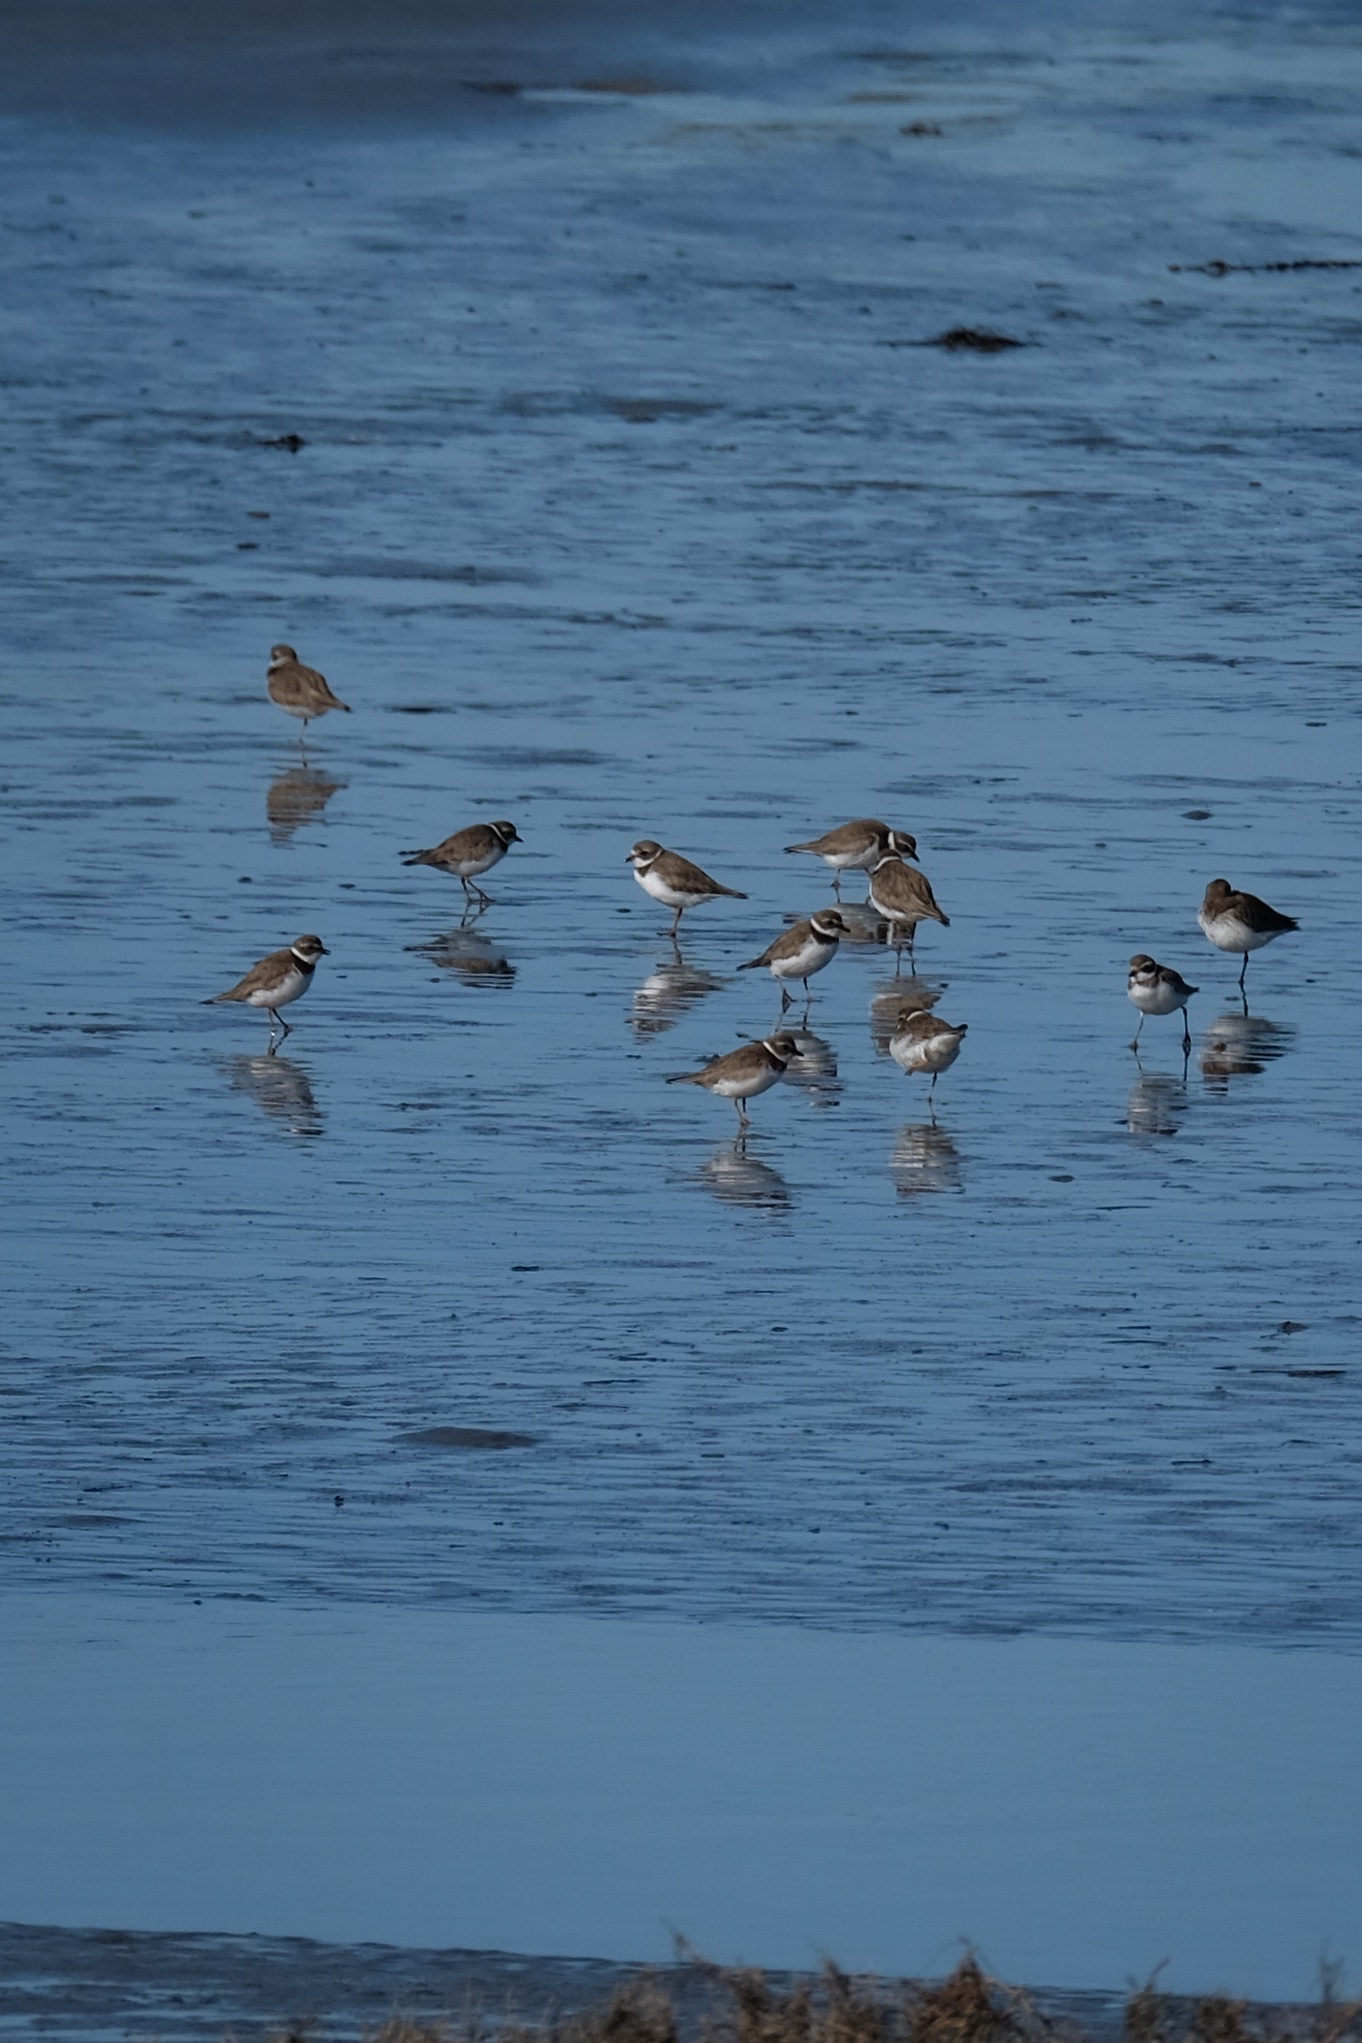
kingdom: Animalia
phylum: Chordata
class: Aves
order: Charadriiformes
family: Charadriidae
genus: Charadrius
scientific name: Charadrius semipalmatus
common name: Semipalmated plover
